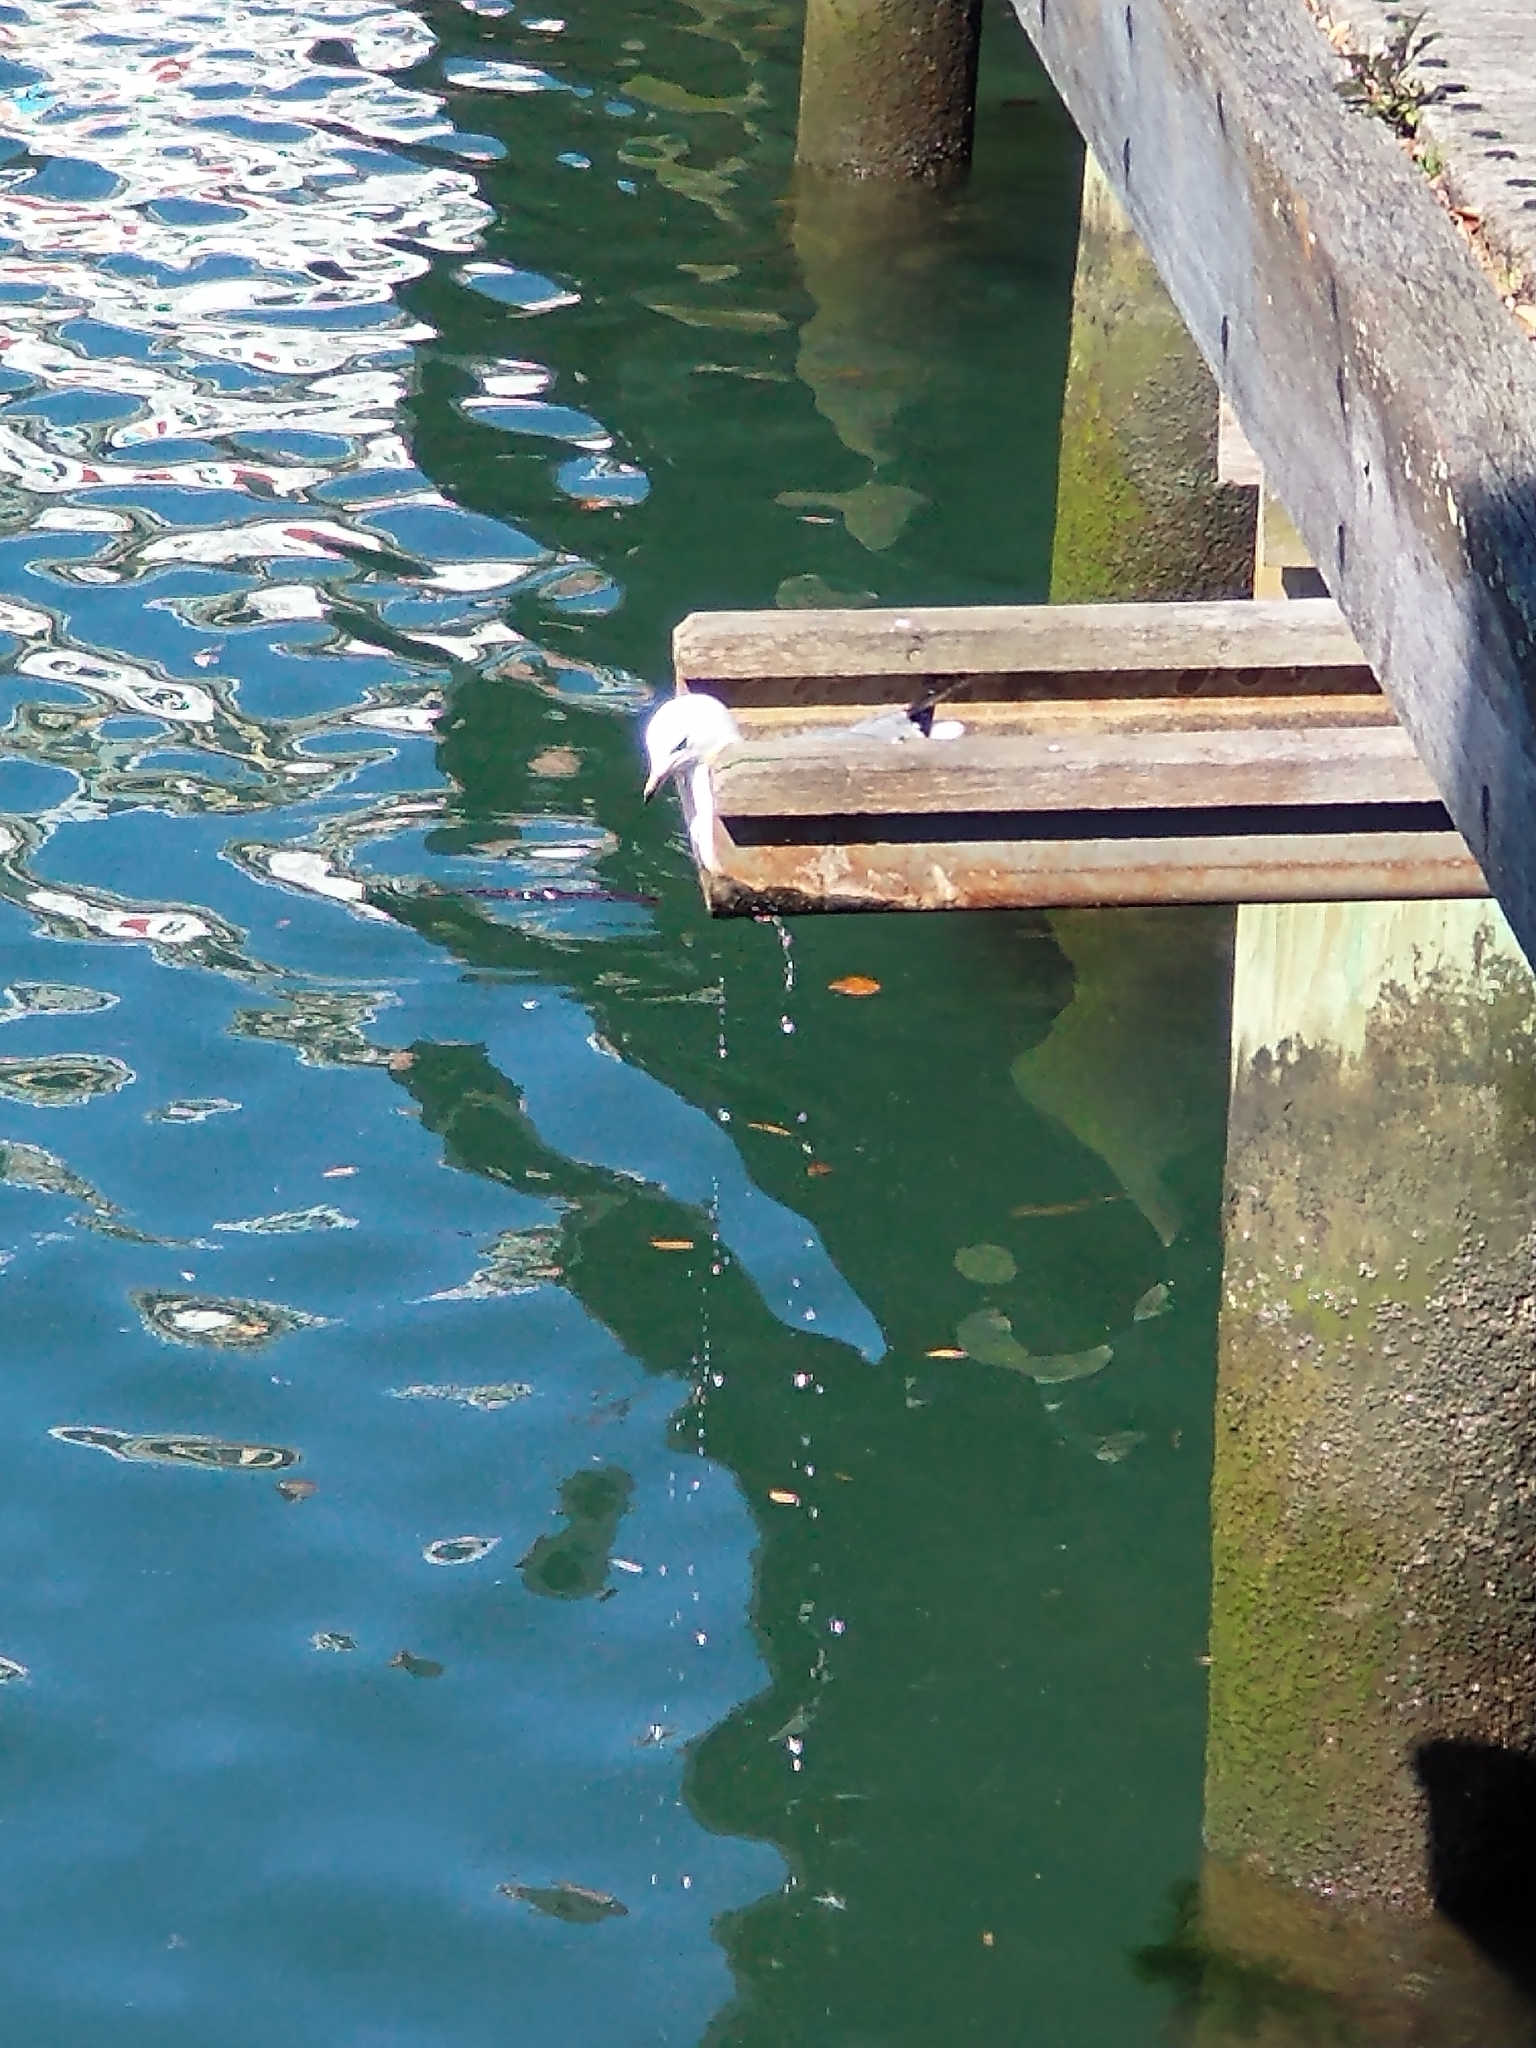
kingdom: Animalia
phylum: Chordata
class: Aves
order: Charadriiformes
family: Laridae
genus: Chroicocephalus
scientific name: Chroicocephalus novaehollandiae
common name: Silver gull
